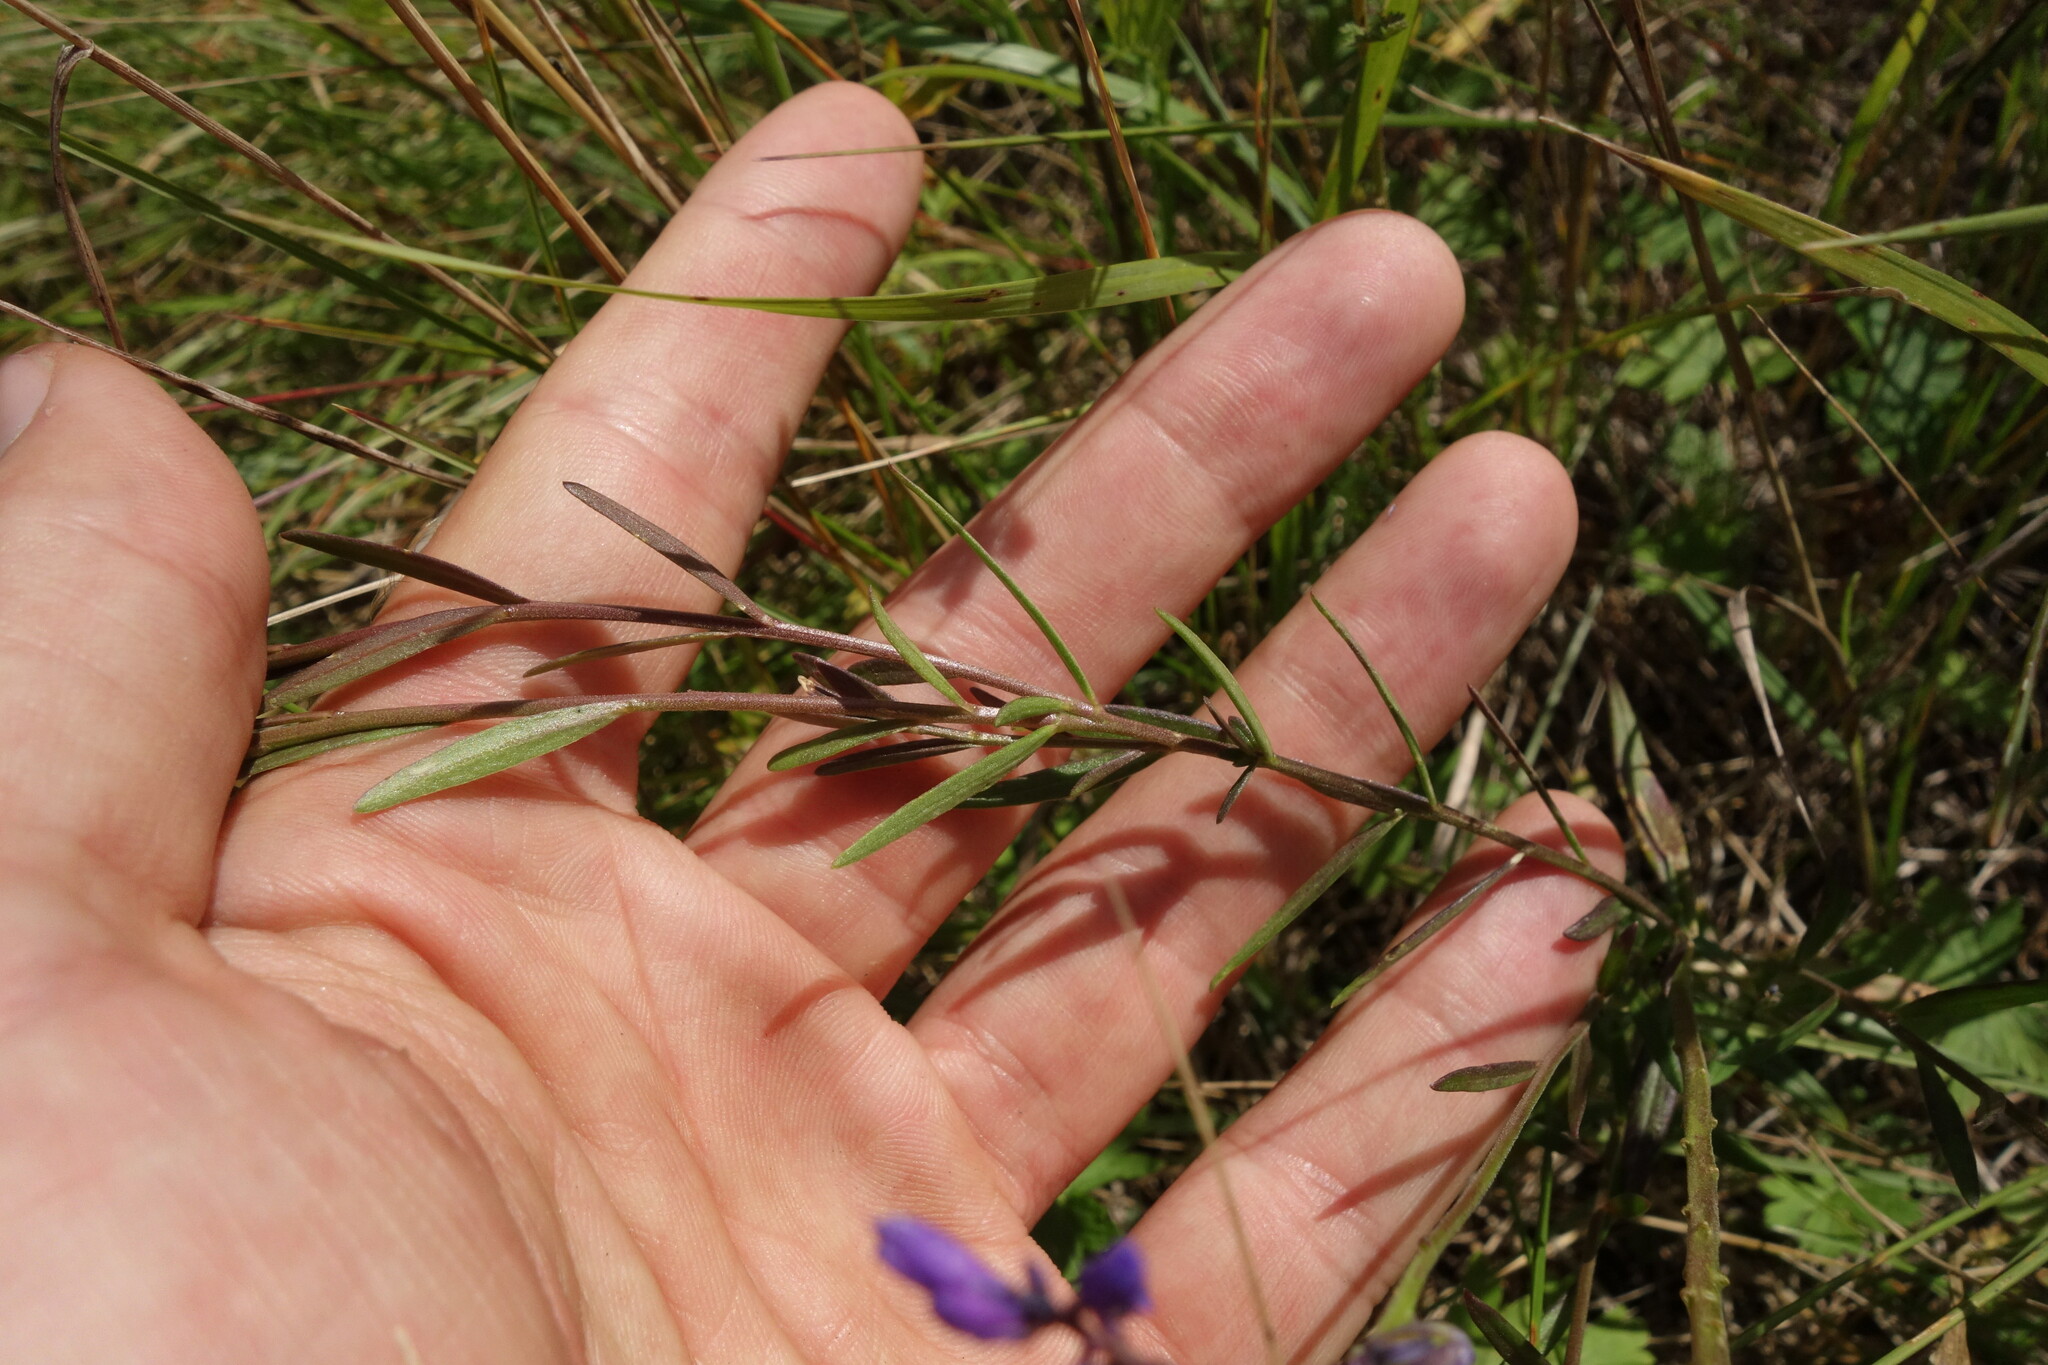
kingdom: Plantae
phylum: Tracheophyta
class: Magnoliopsida
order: Fabales
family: Polygalaceae
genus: Polygala
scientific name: Polygala comosa
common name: Tufted milkwort
